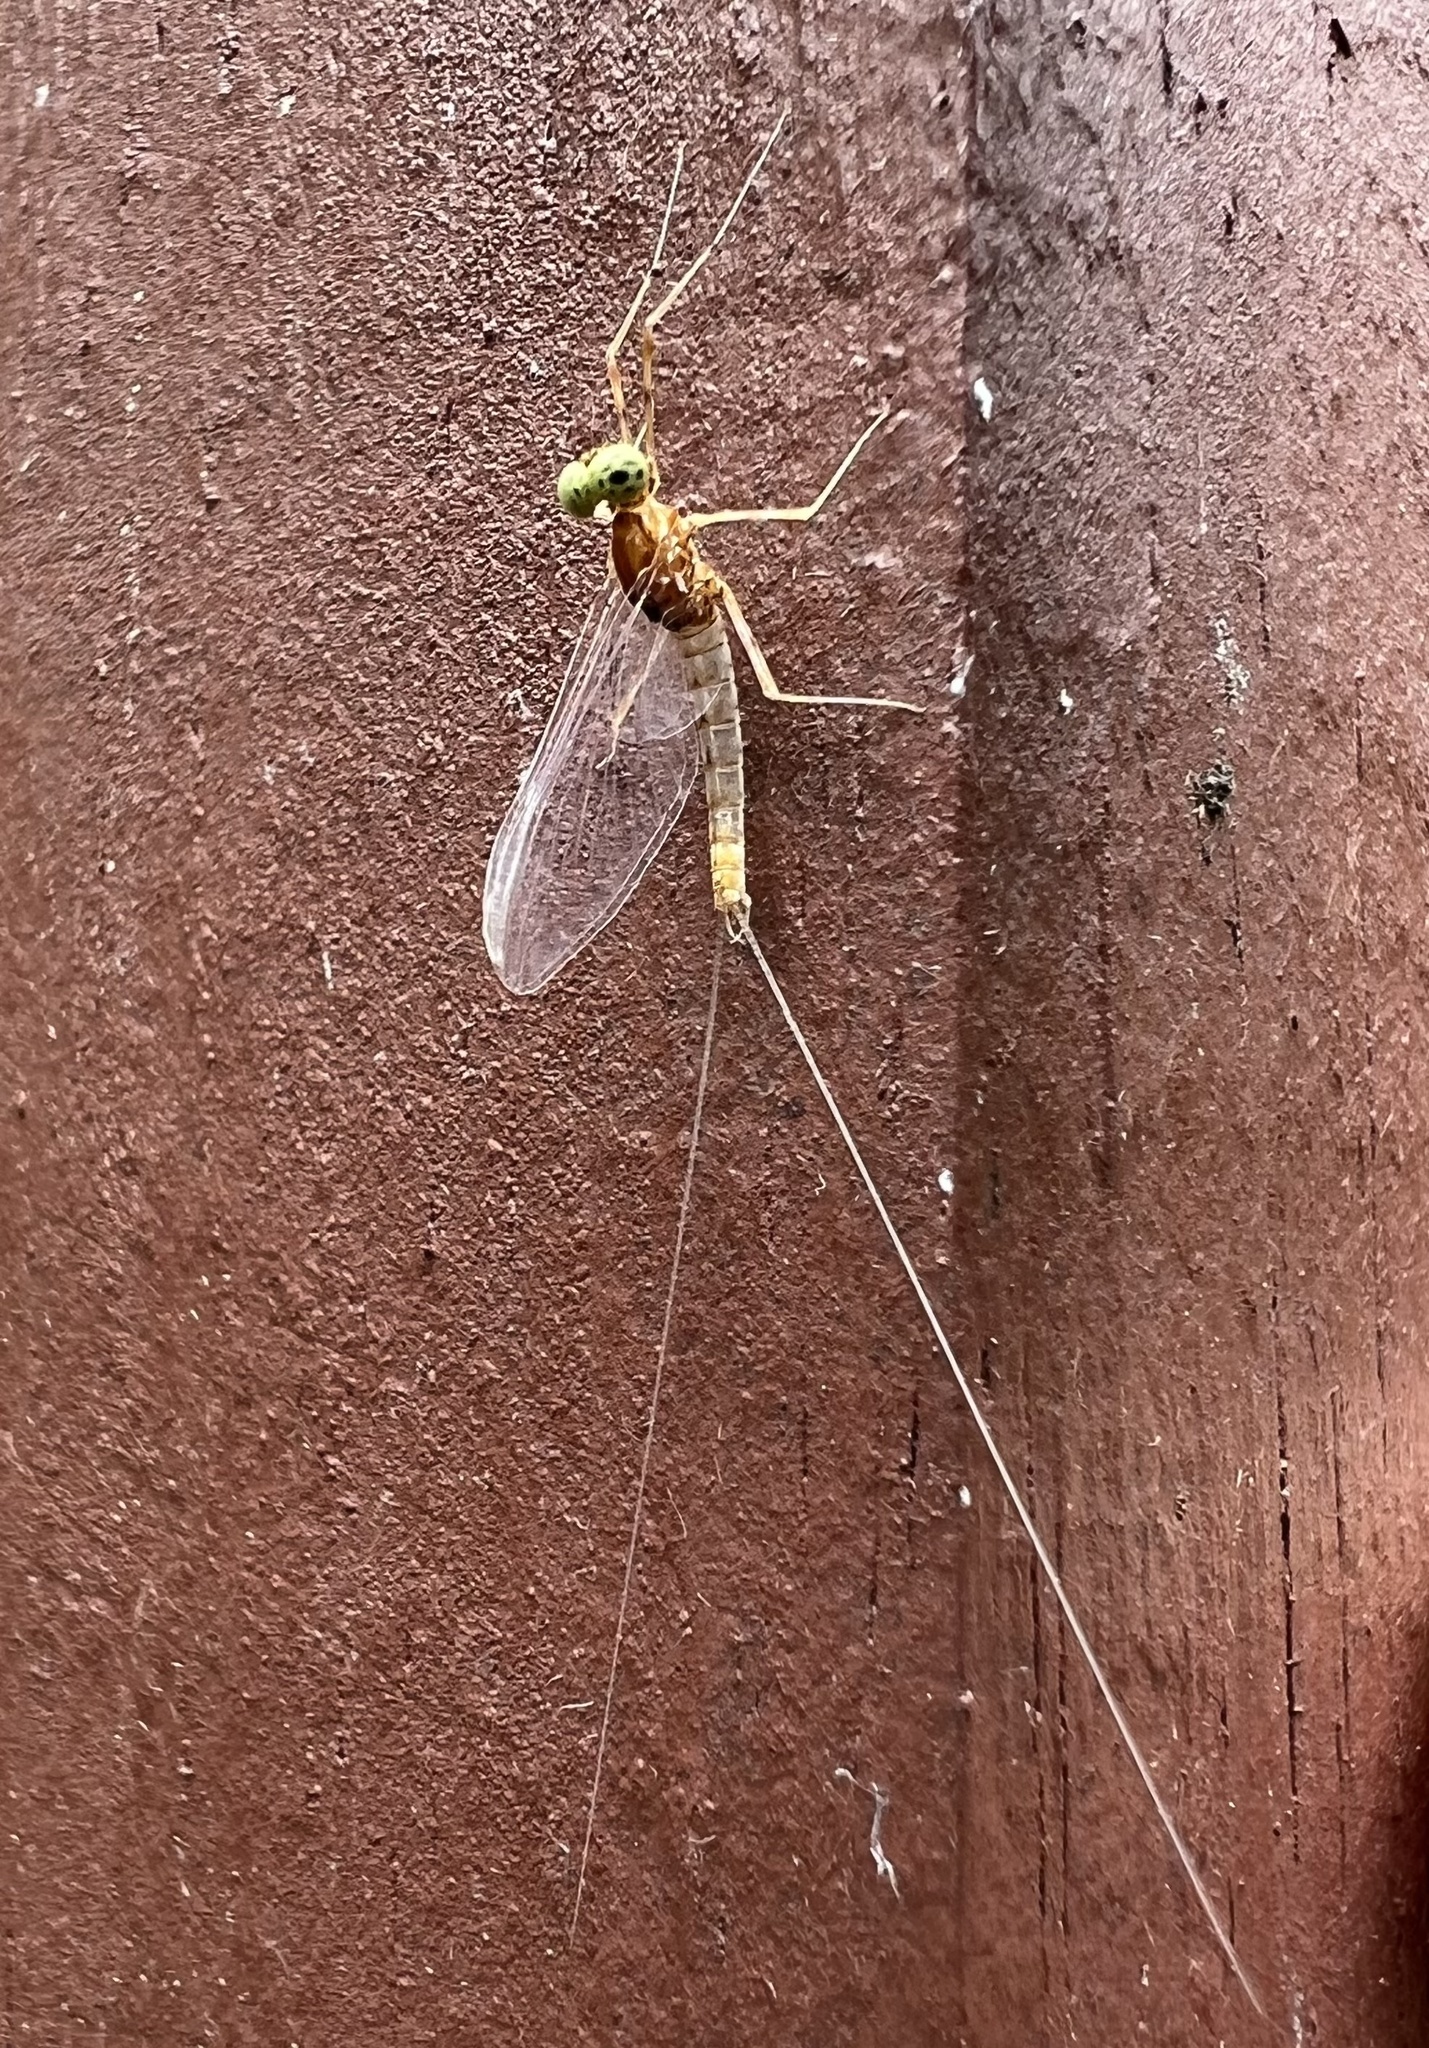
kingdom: Animalia
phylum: Arthropoda
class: Insecta
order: Ephemeroptera
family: Heptageniidae
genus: Epeorus
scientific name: Epeorus frisoni
